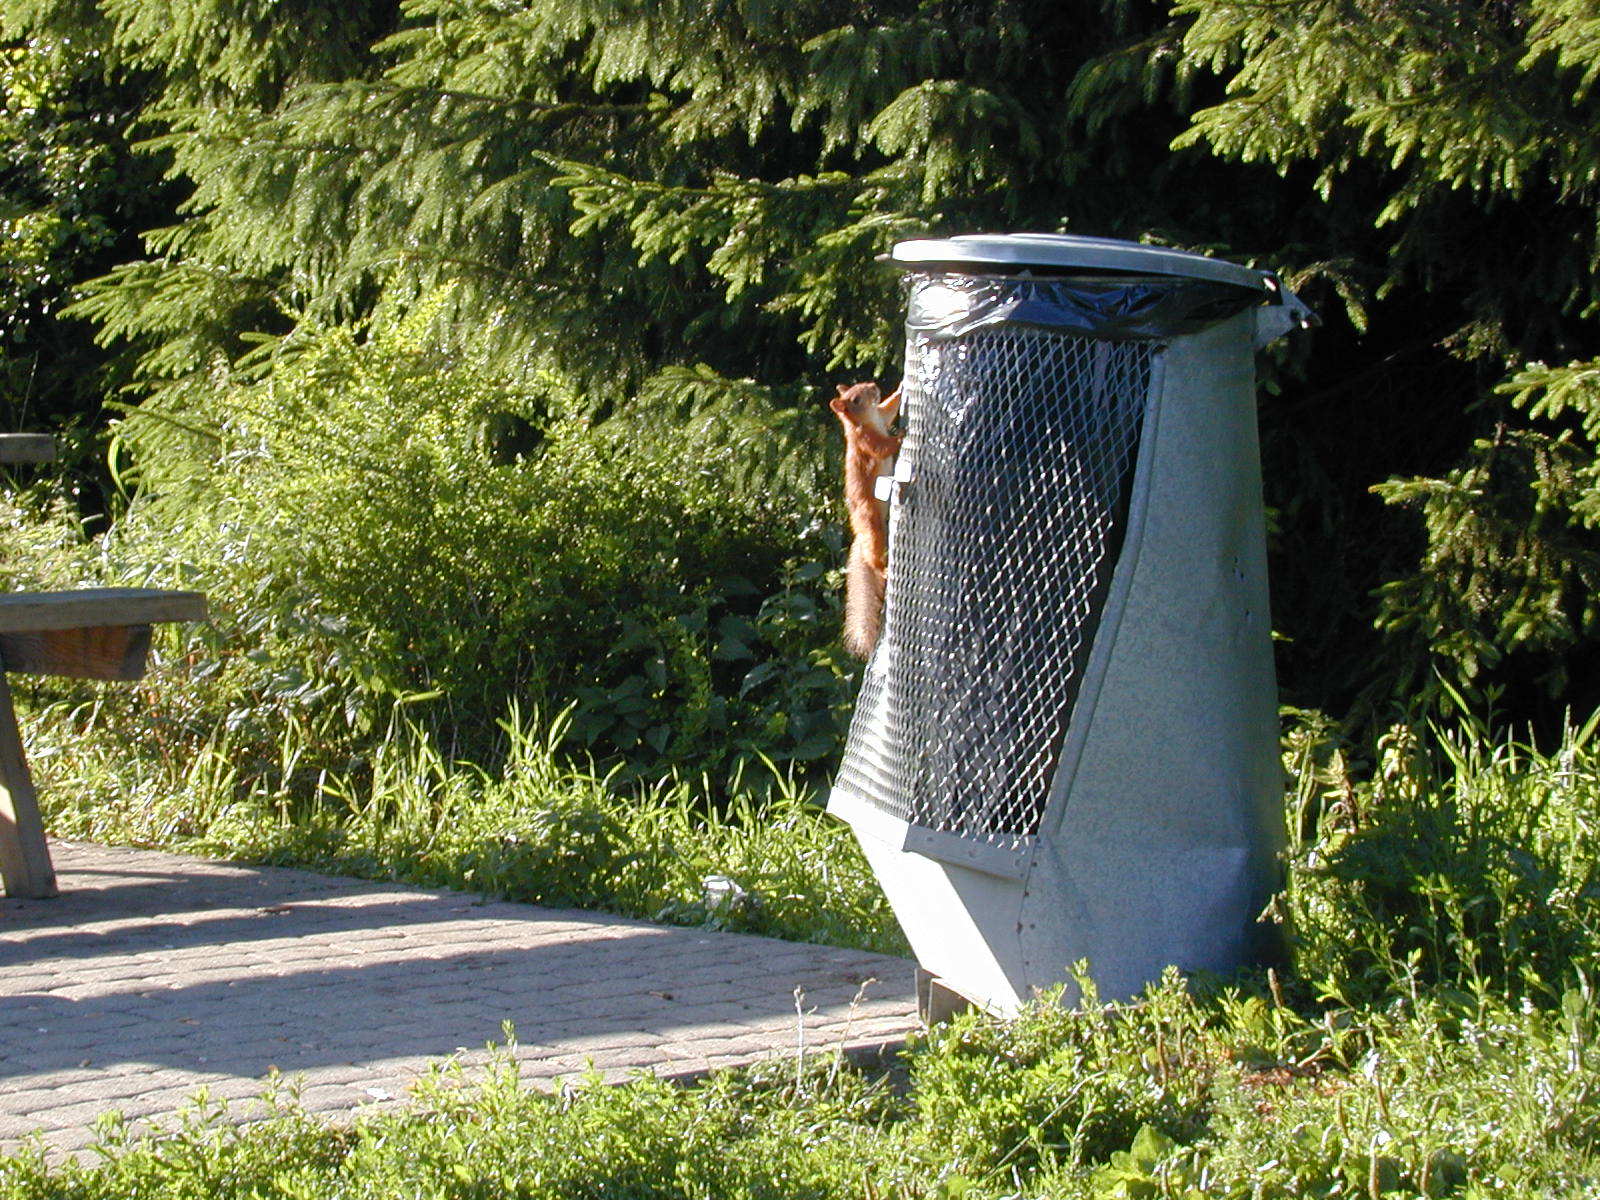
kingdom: Animalia
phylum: Chordata
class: Mammalia
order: Rodentia
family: Sciuridae
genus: Sciurus
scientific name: Sciurus vulgaris
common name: Eurasian red squirrel
